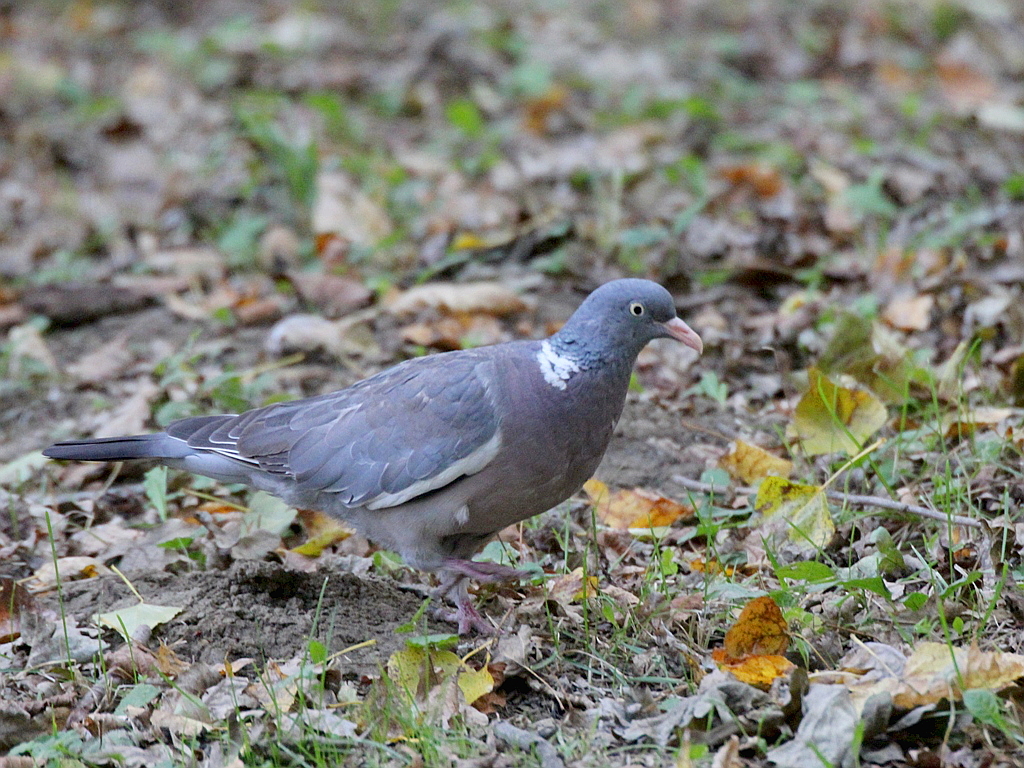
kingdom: Animalia
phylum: Chordata
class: Aves
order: Columbiformes
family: Columbidae
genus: Columba
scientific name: Columba palumbus
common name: Common wood pigeon
